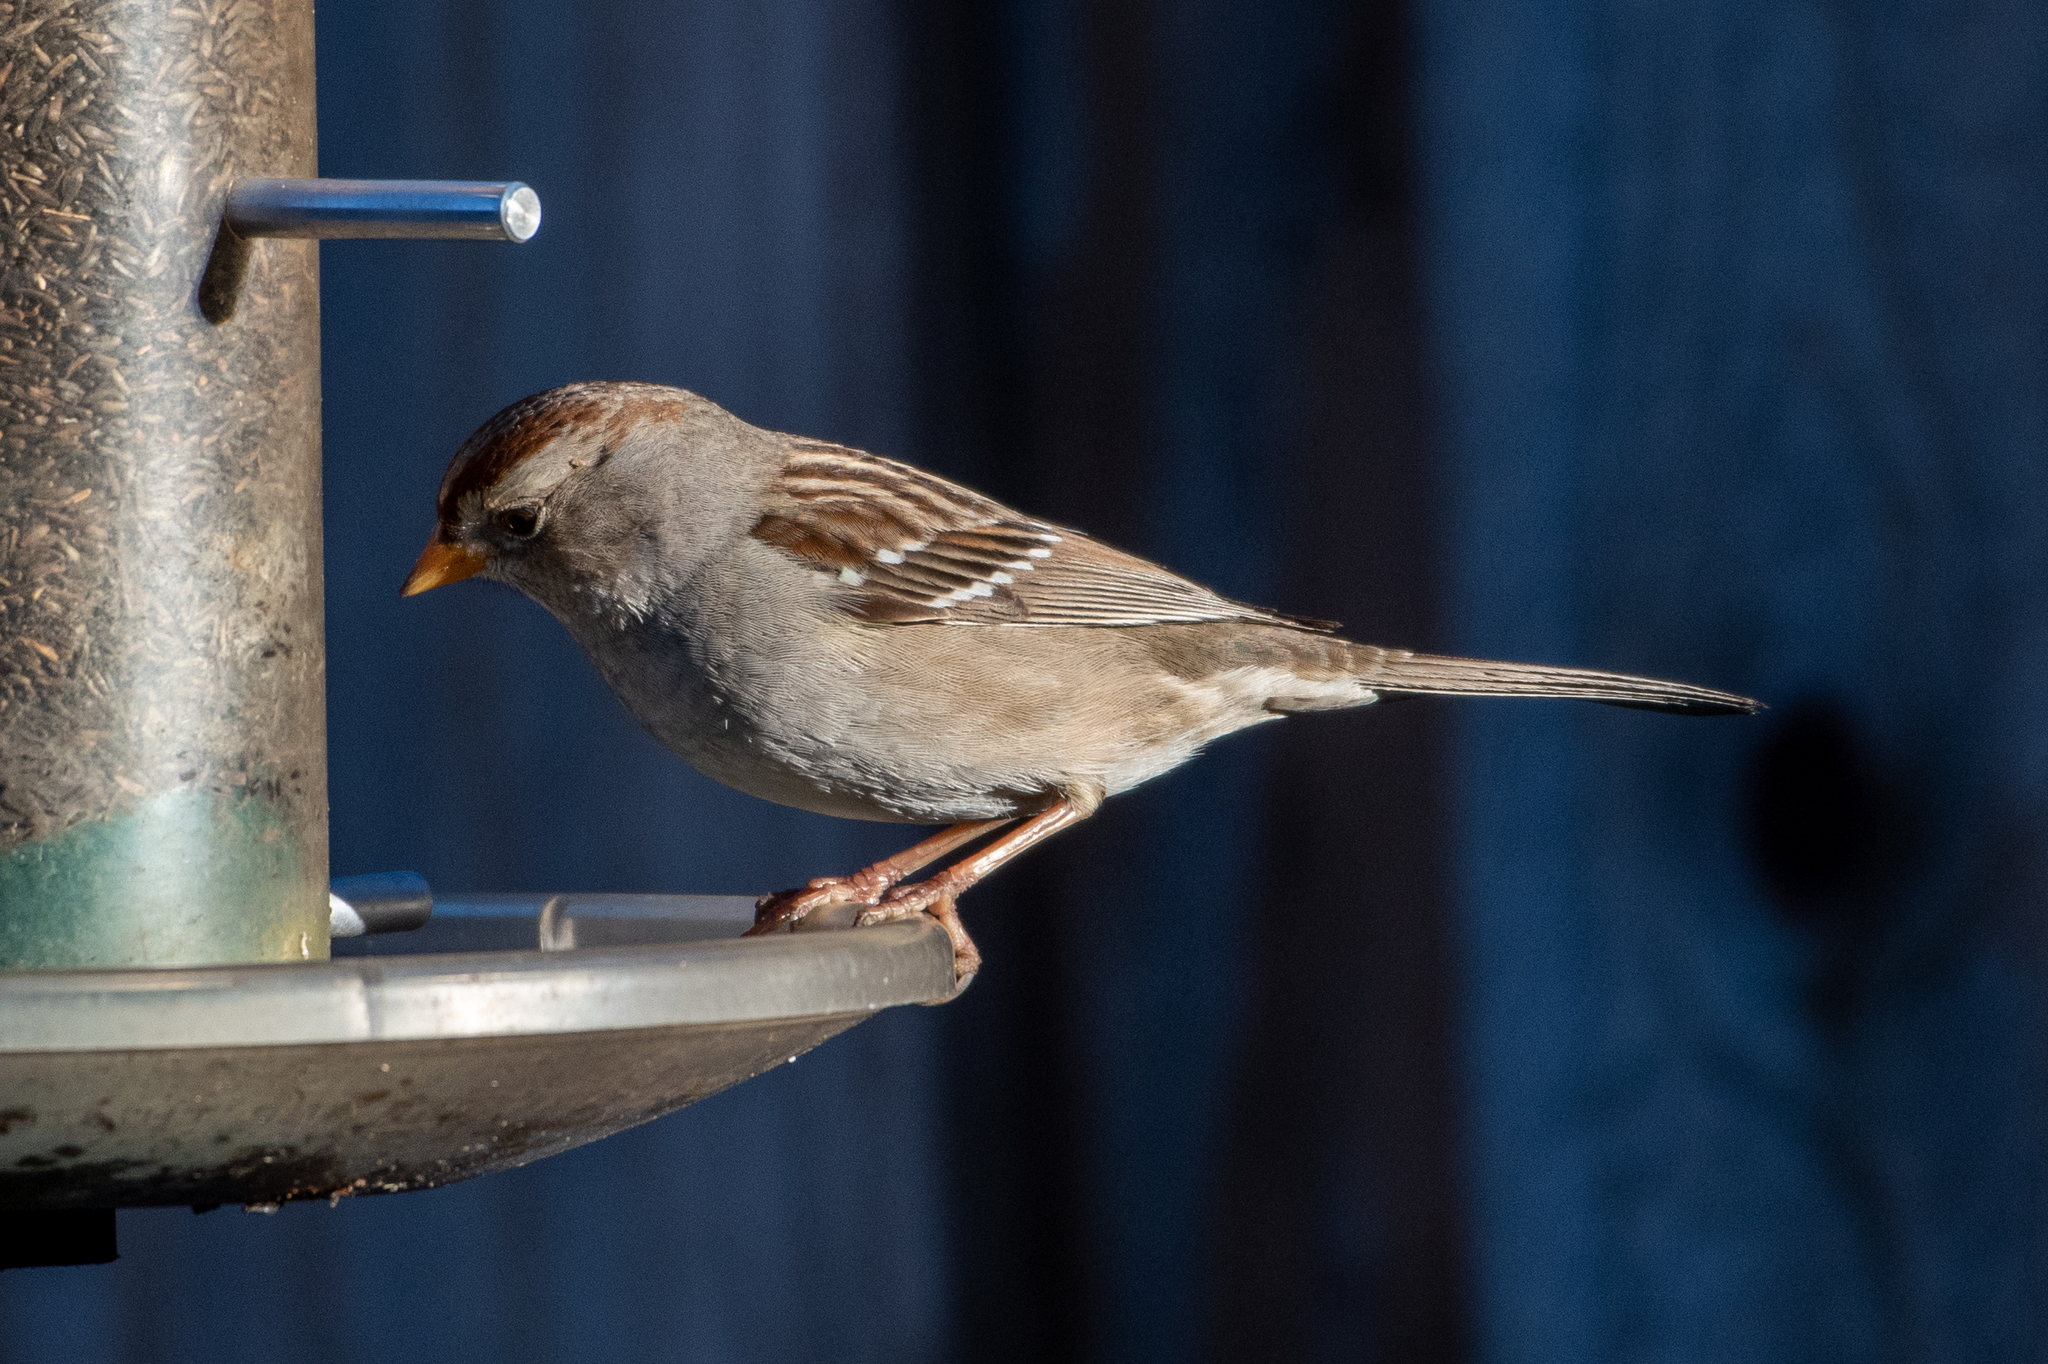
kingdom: Animalia
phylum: Chordata
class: Aves
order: Passeriformes
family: Passerellidae
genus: Zonotrichia
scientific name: Zonotrichia leucophrys
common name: White-crowned sparrow
